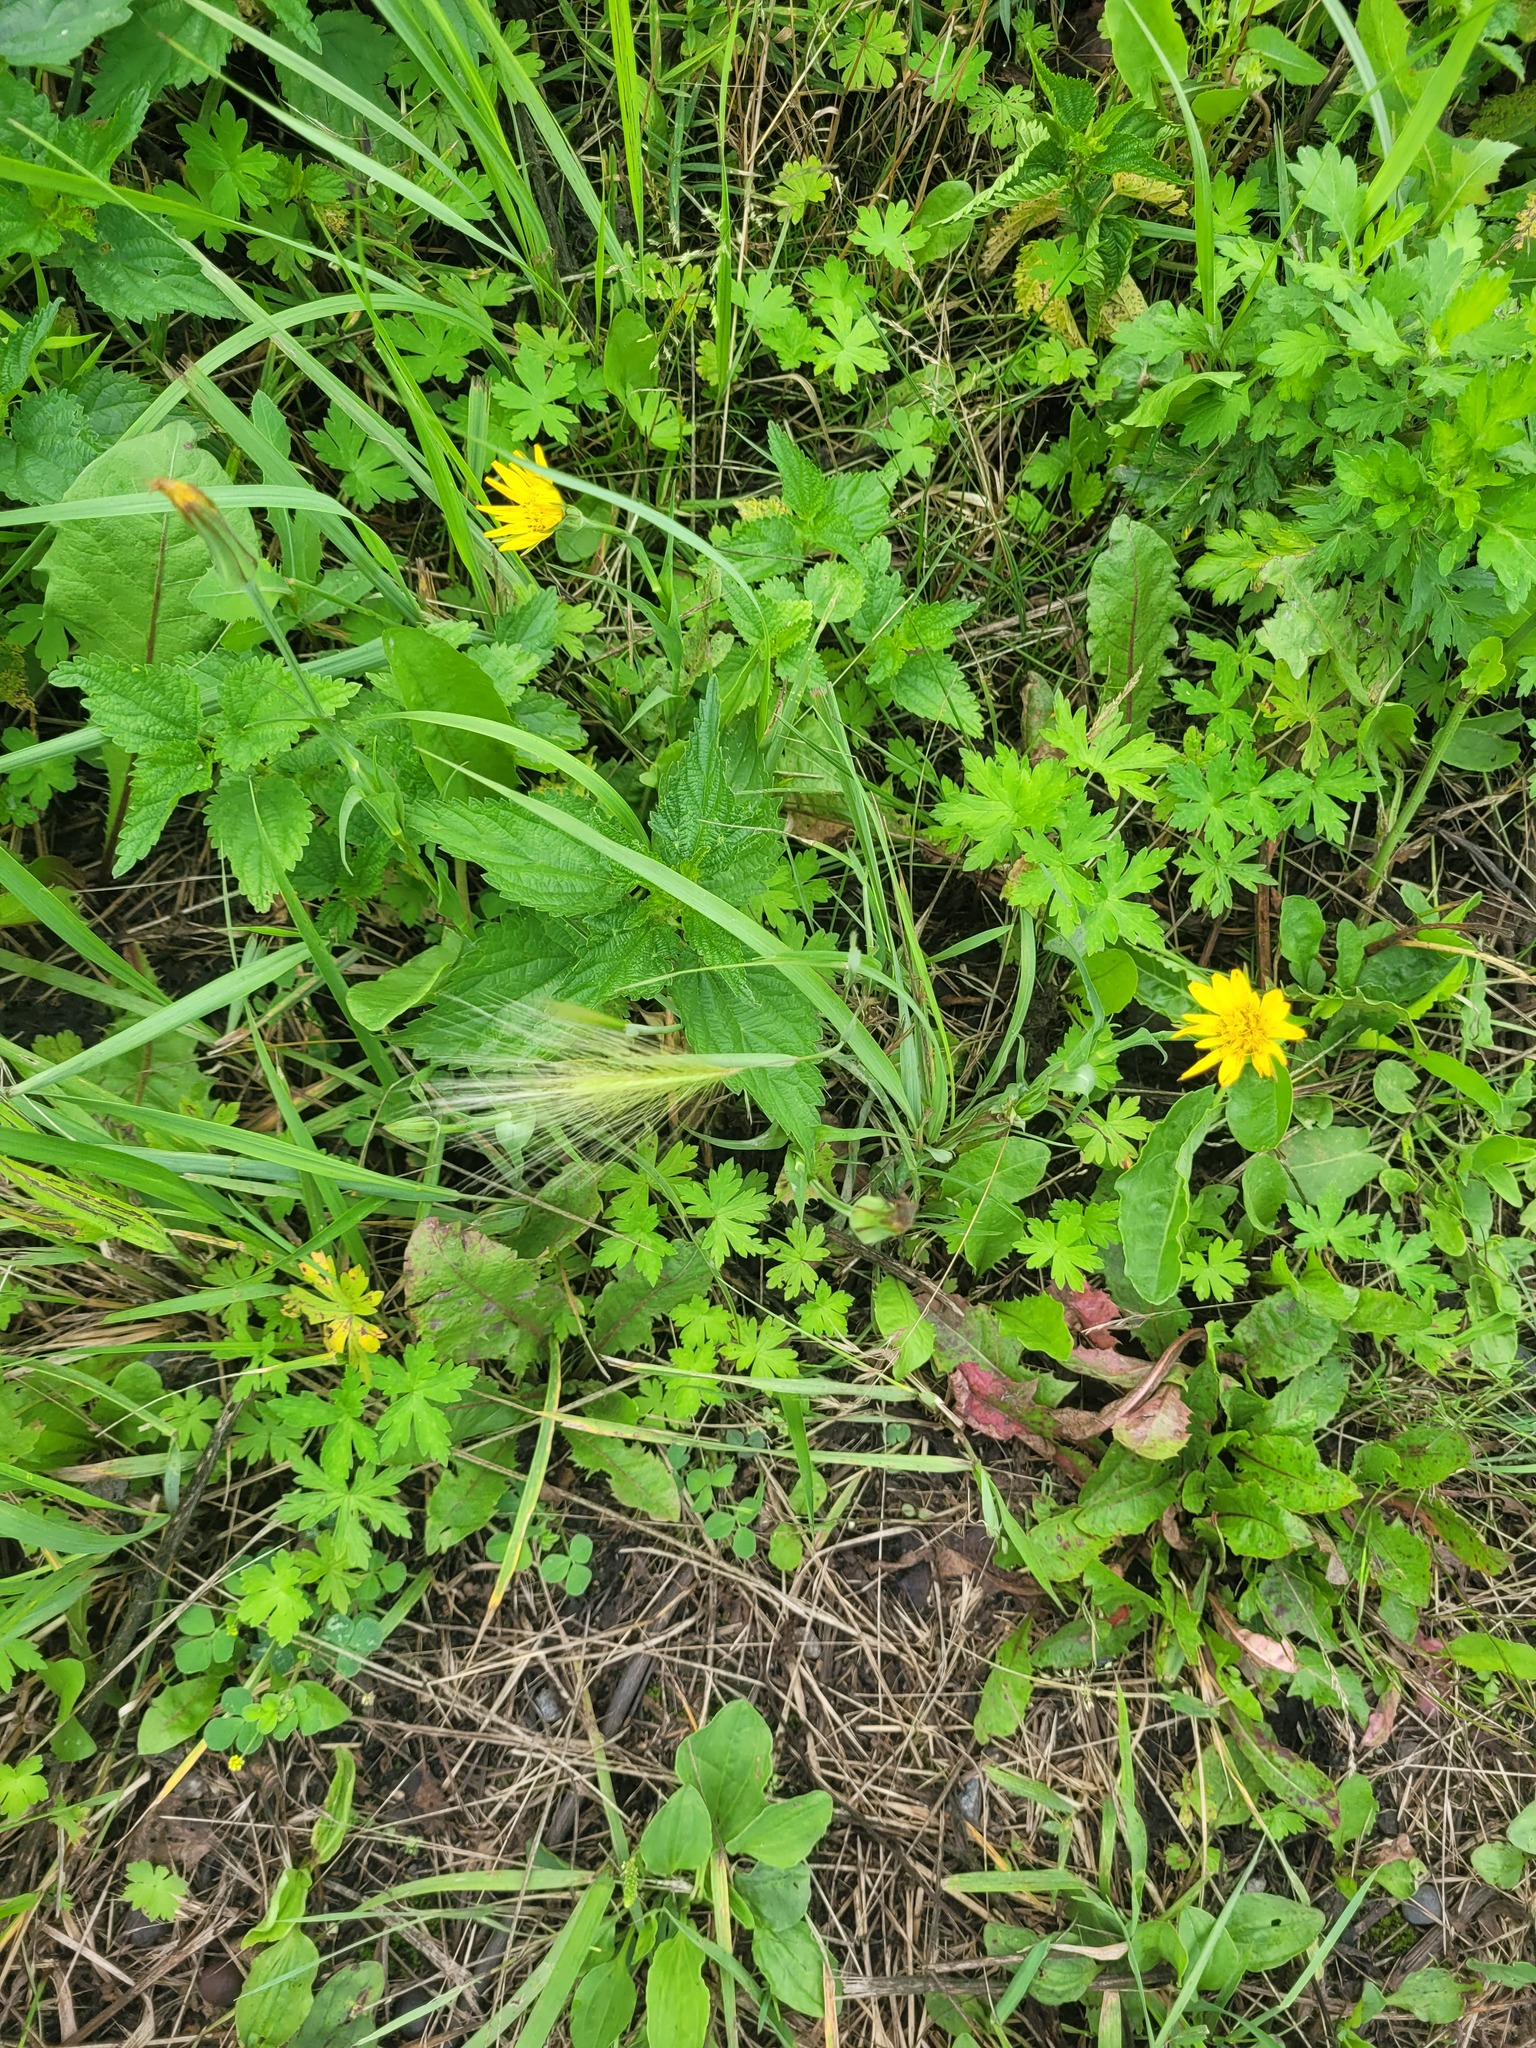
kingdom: Plantae
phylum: Tracheophyta
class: Liliopsida
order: Poales
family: Poaceae
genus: Hordeum
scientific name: Hordeum jubatum
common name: Foxtail barley
